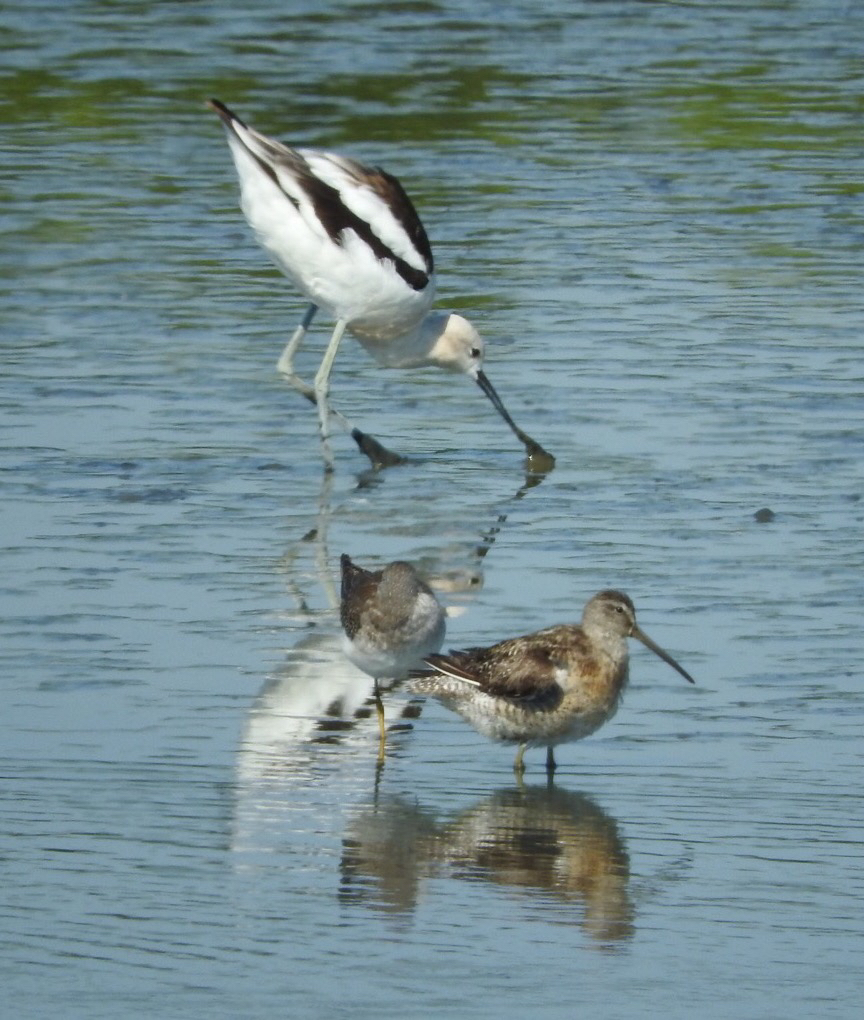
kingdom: Animalia
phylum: Chordata
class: Aves
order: Charadriiformes
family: Recurvirostridae
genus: Recurvirostra
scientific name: Recurvirostra americana
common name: American avocet
